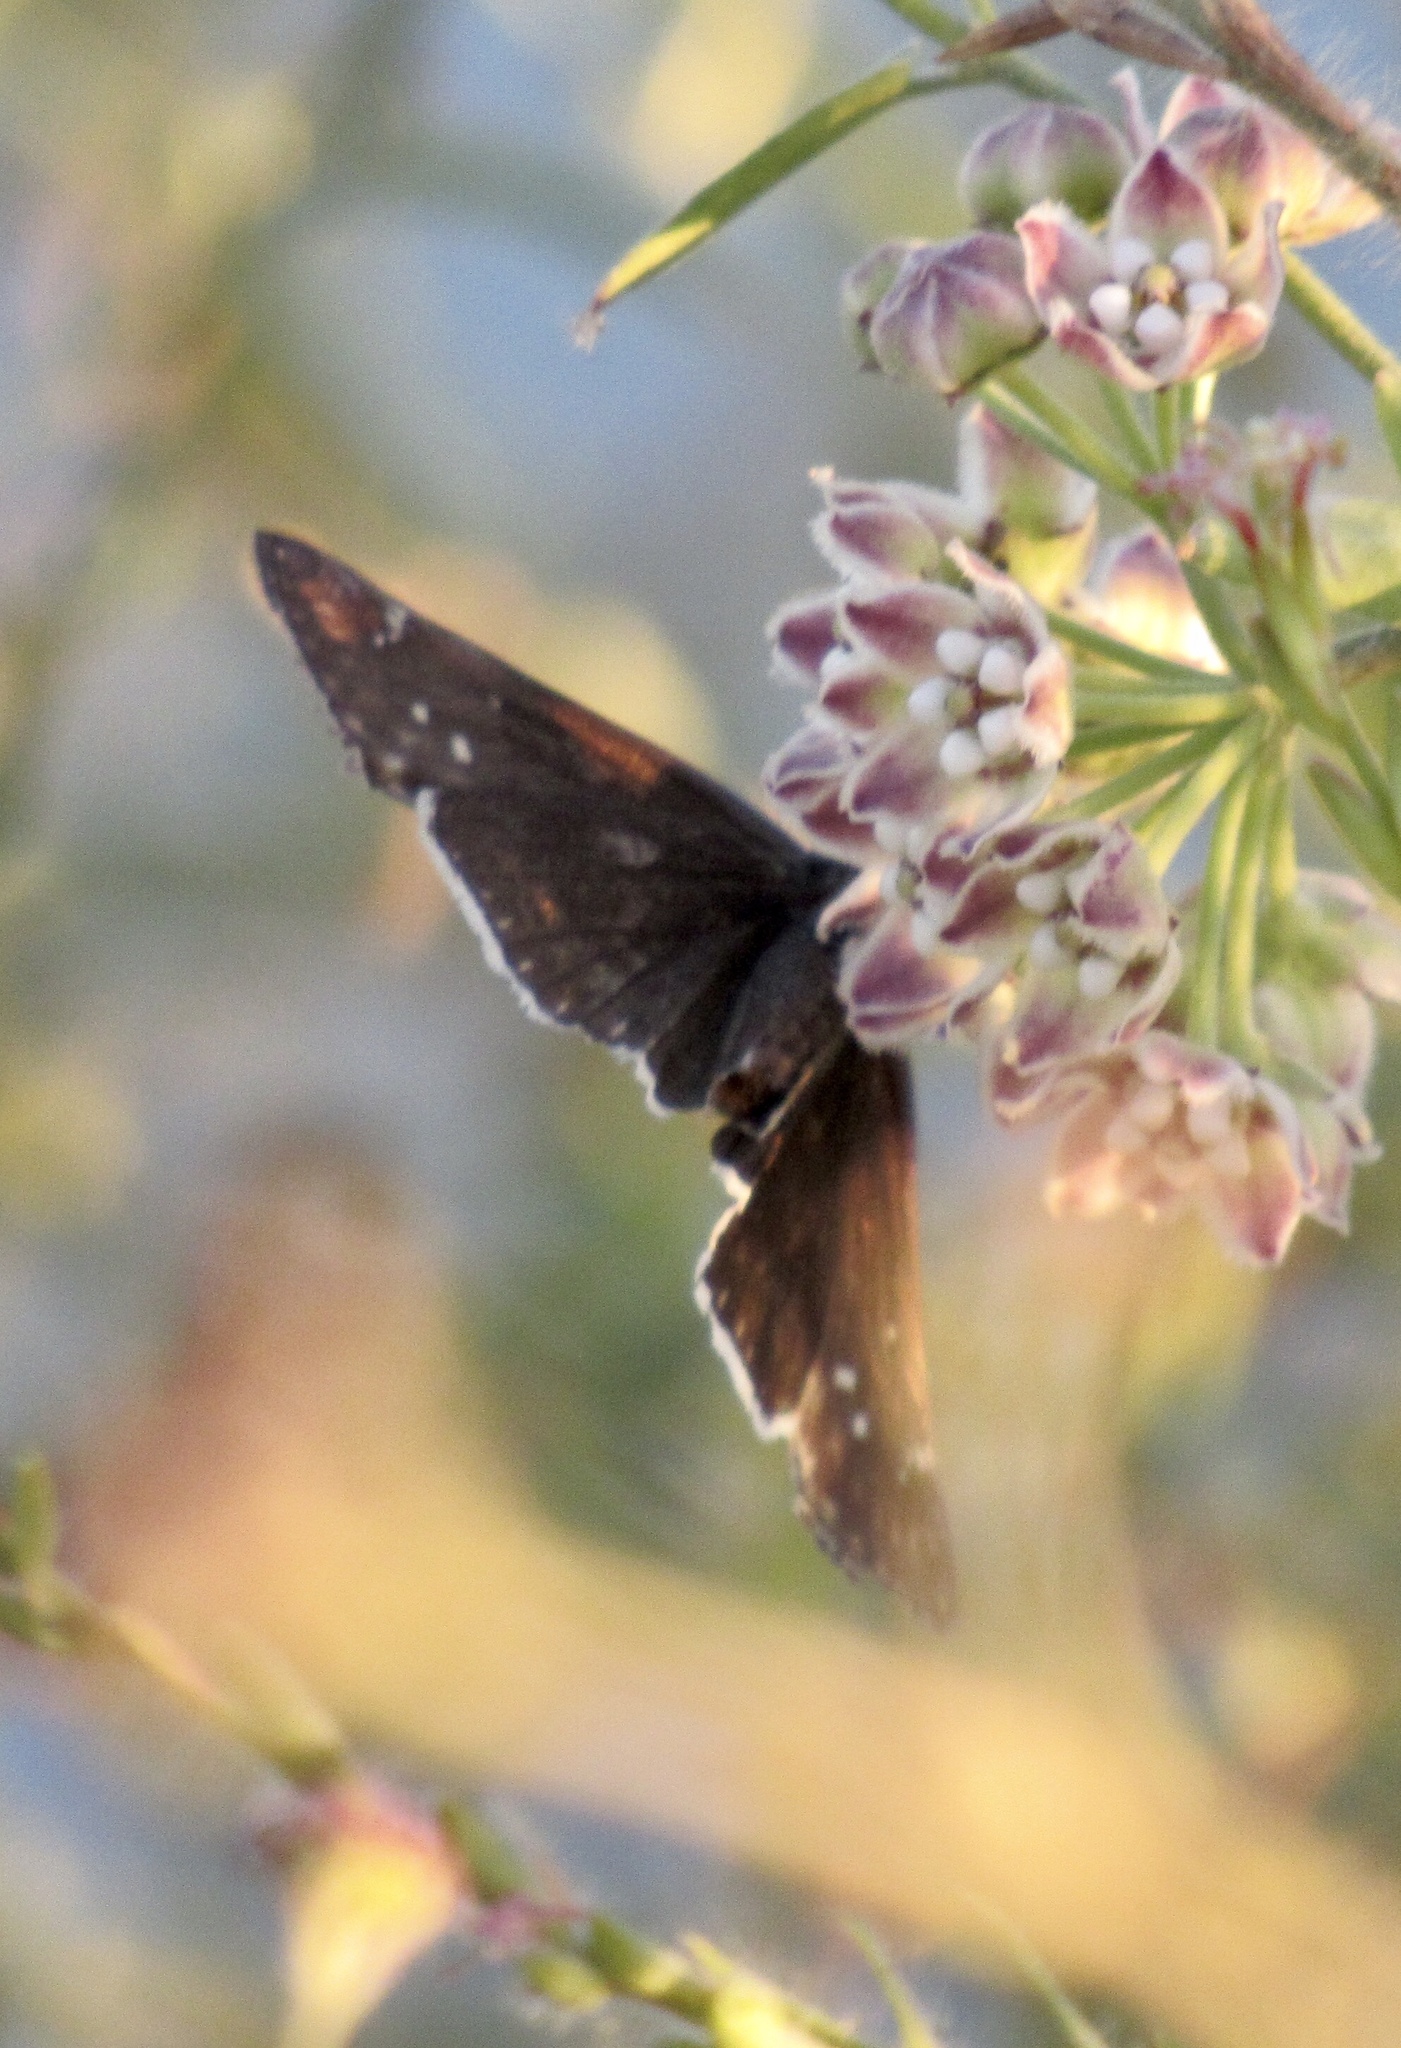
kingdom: Animalia
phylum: Arthropoda
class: Insecta
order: Lepidoptera
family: Hesperiidae
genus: Erynnis
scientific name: Erynnis funeralis
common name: Funereal duskywing
